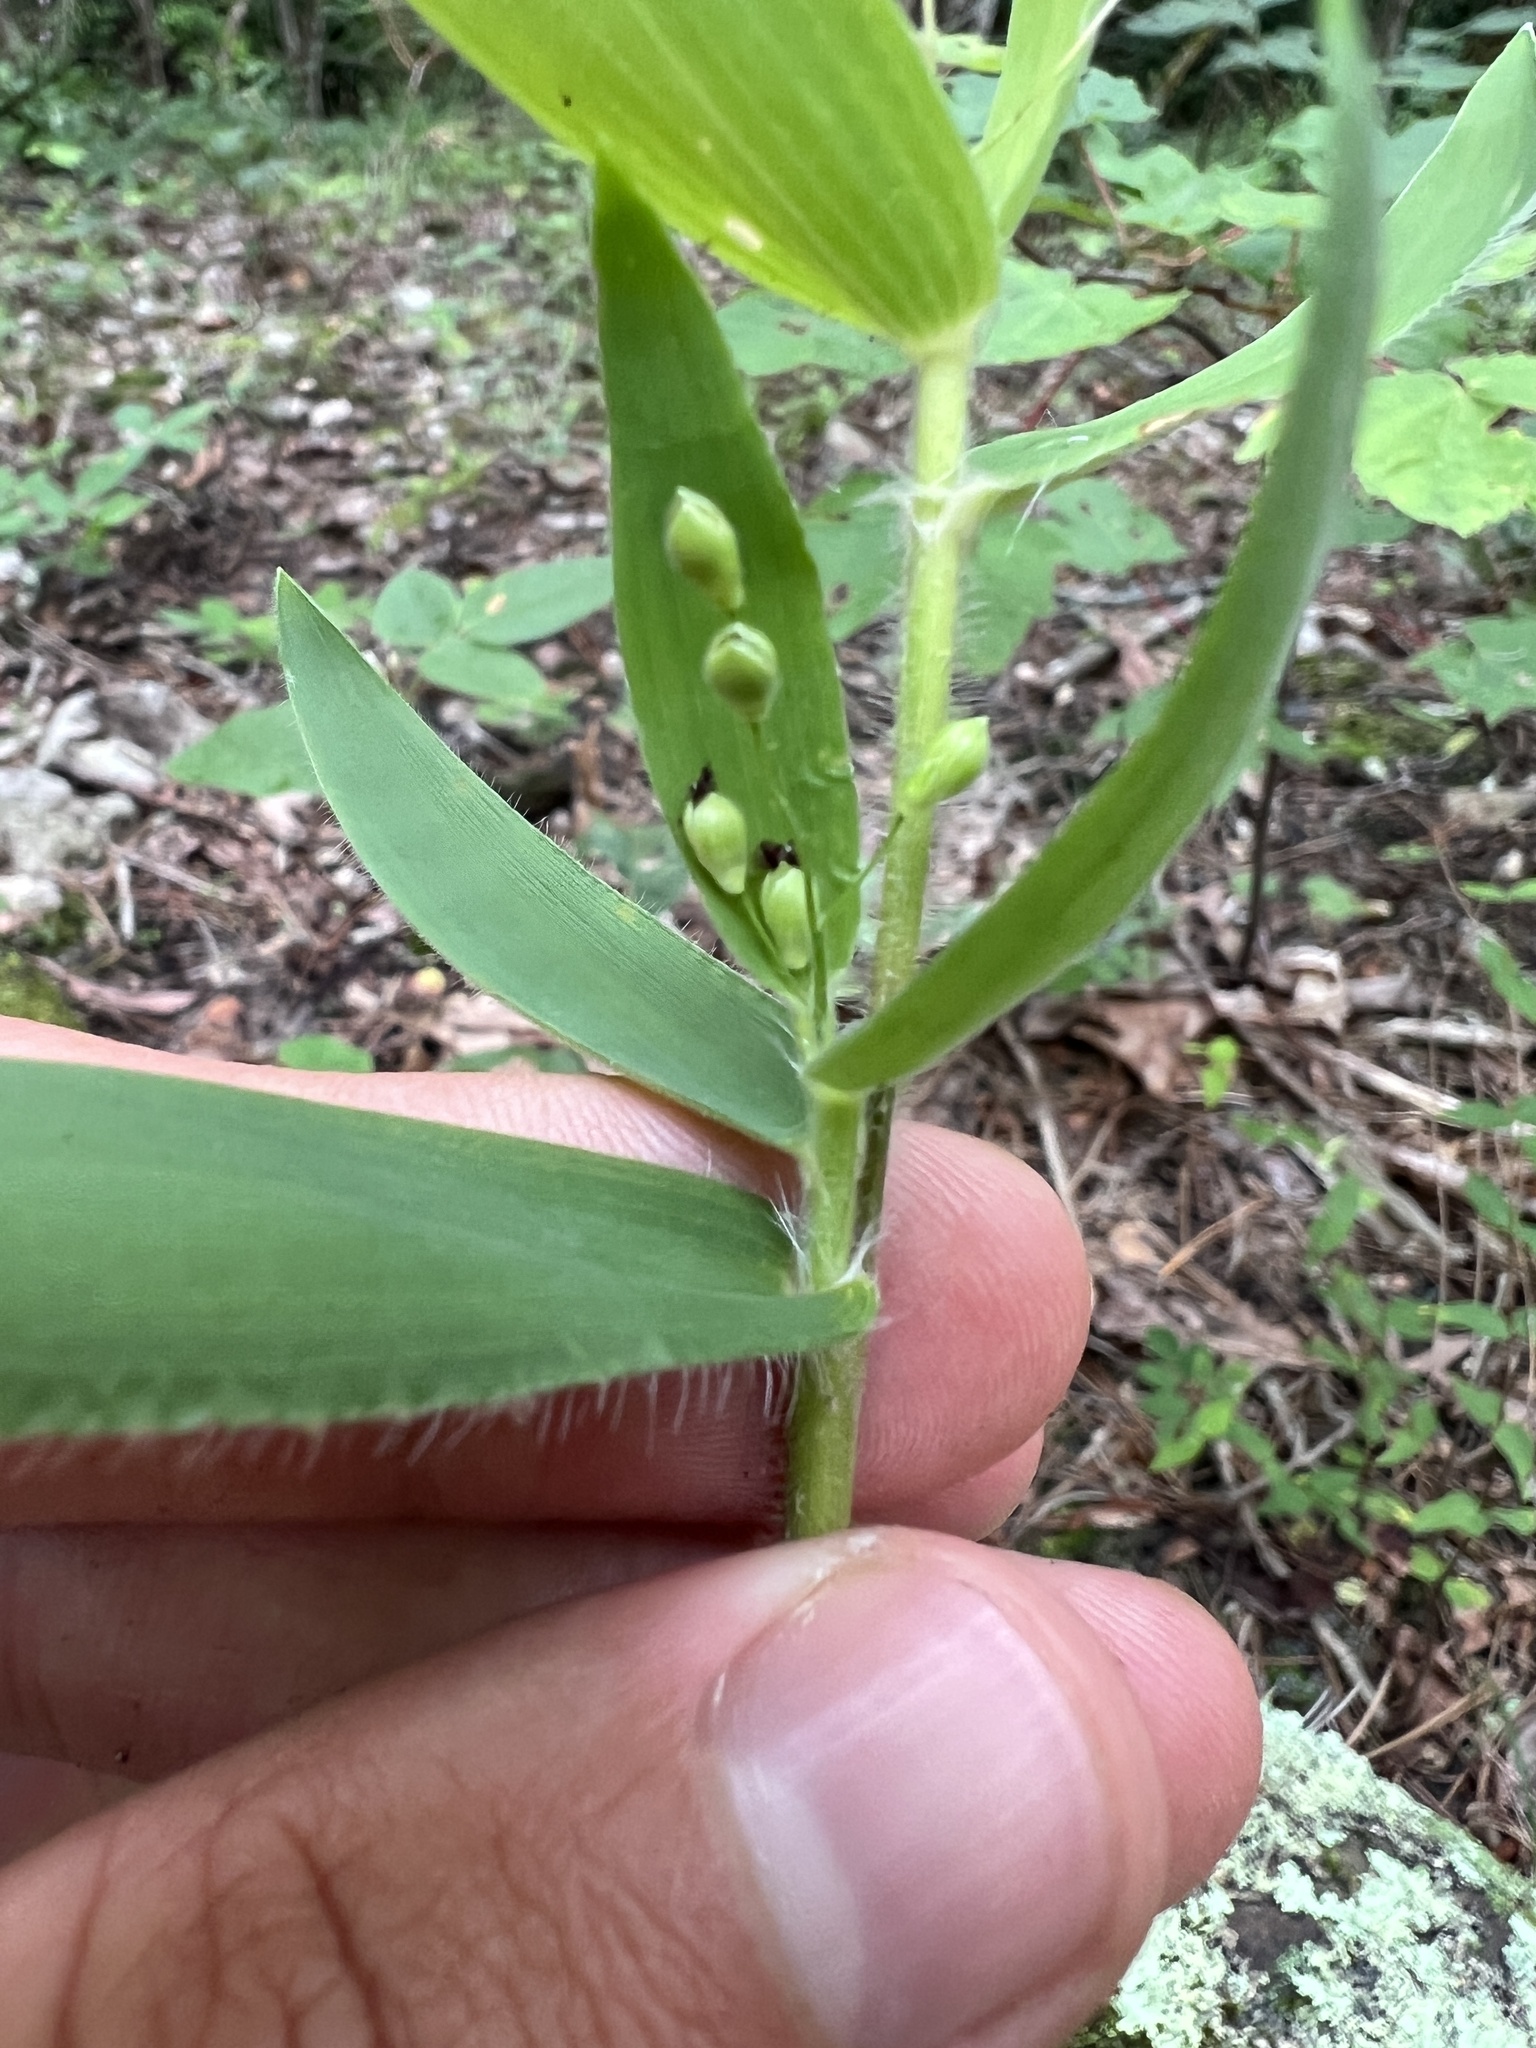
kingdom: Plantae
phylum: Tracheophyta
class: Liliopsida
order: Poales
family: Poaceae
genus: Dichanthelium
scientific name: Dichanthelium ravenelii
